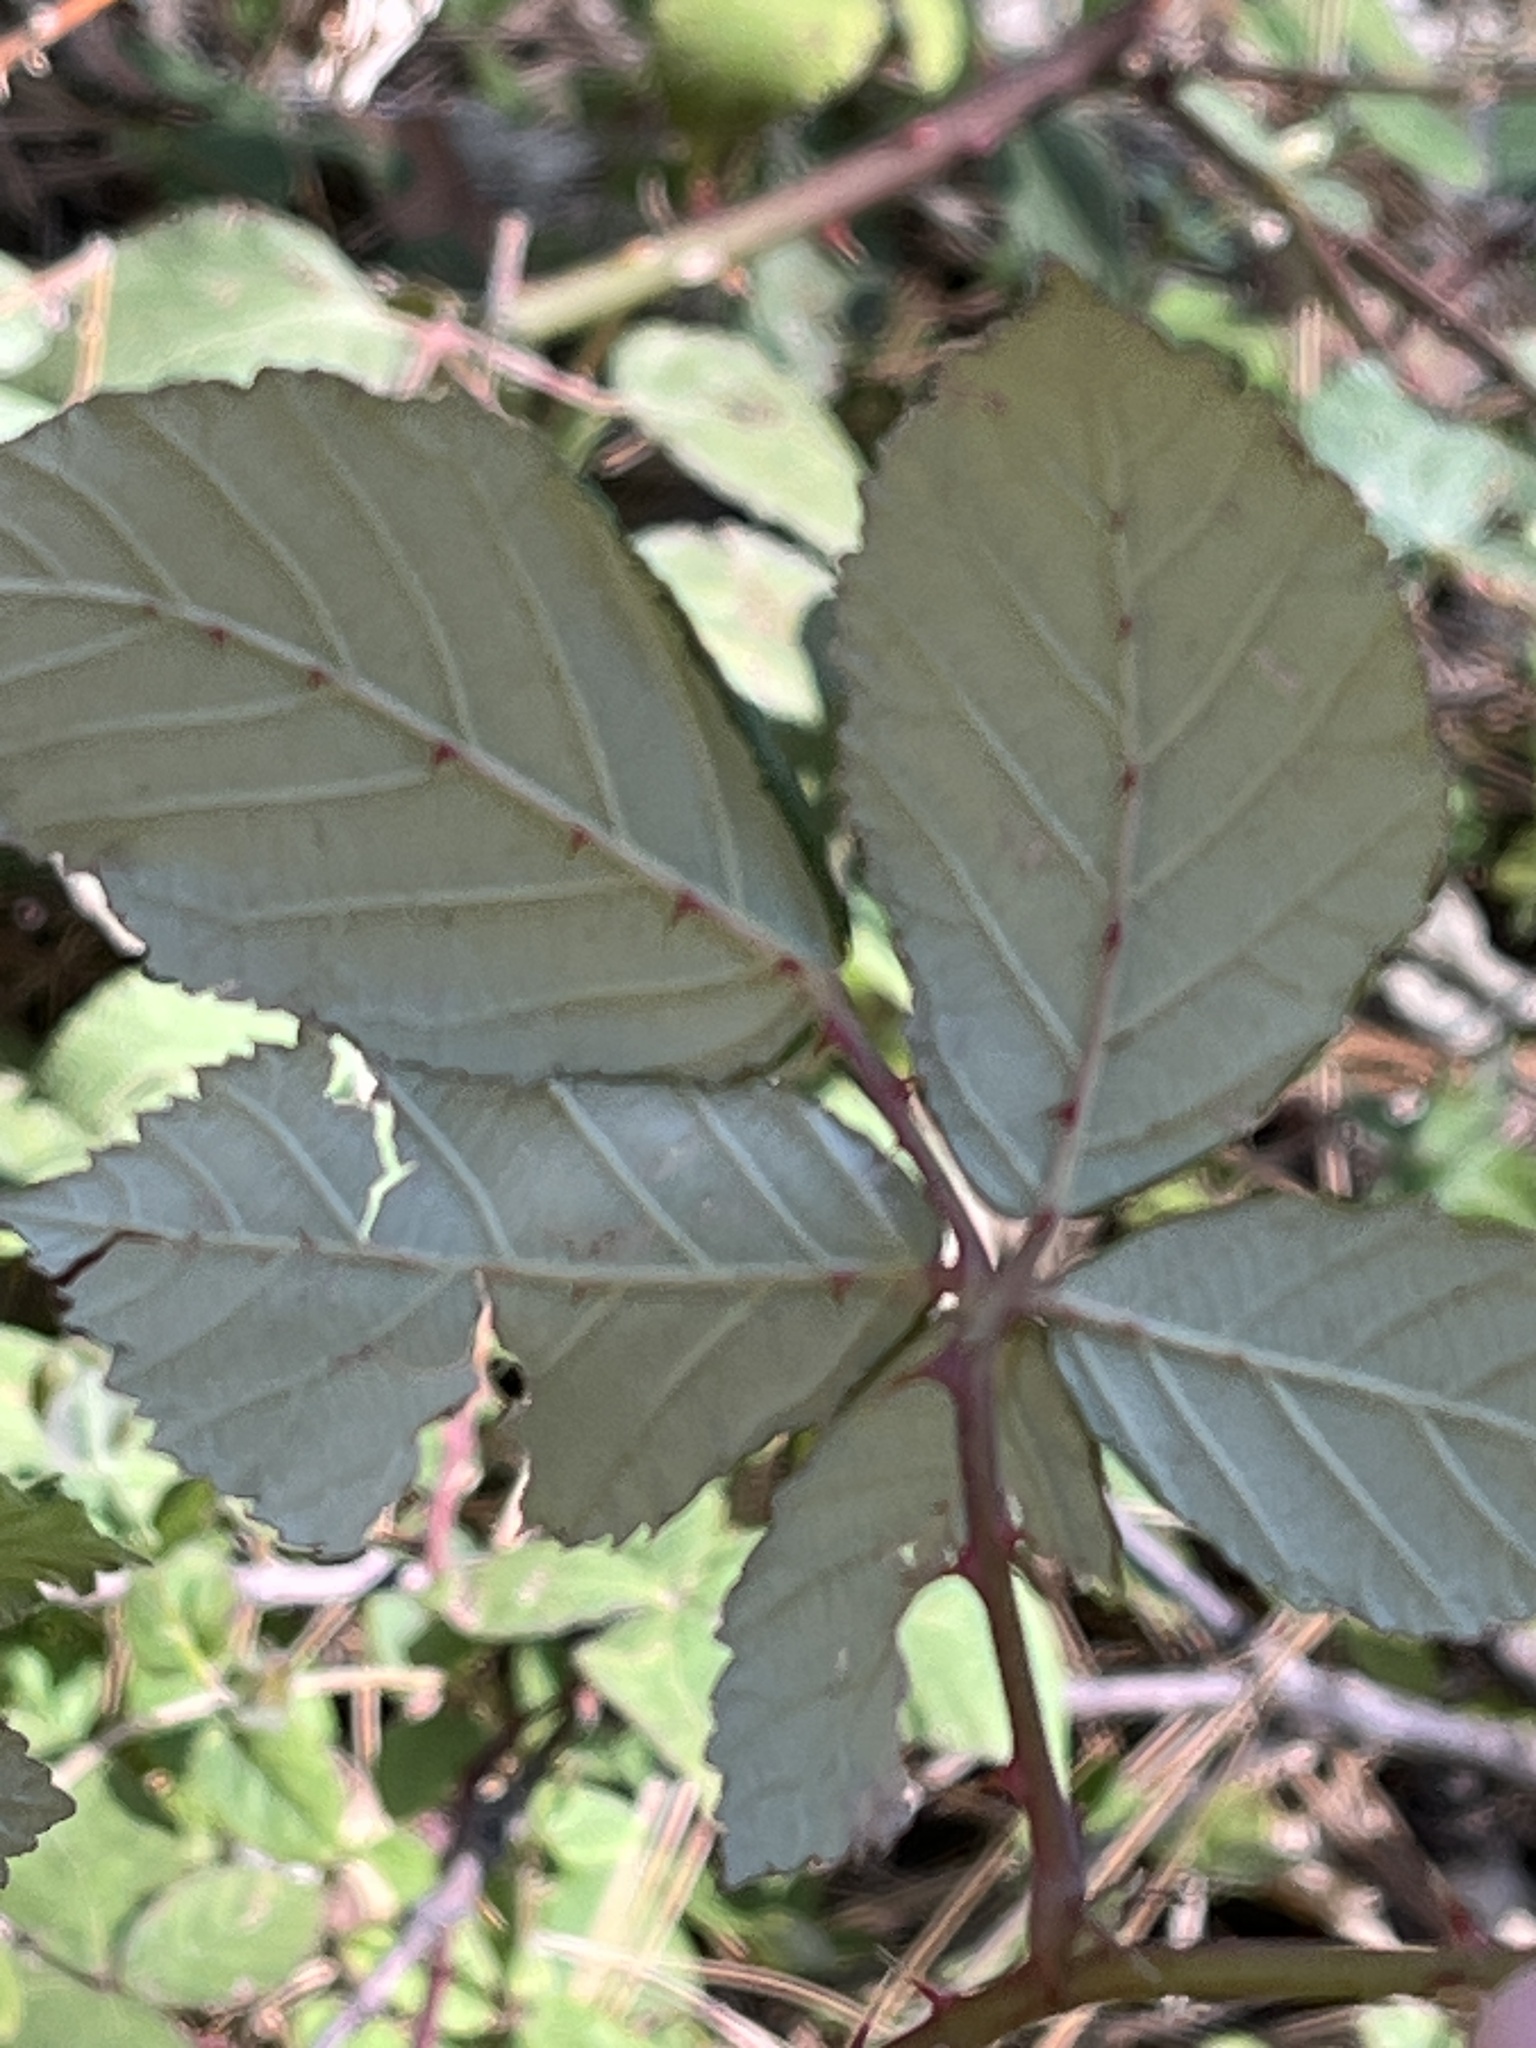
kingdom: Plantae
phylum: Tracheophyta
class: Magnoliopsida
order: Rosales
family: Rosaceae
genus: Rubus
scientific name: Rubus armeniacus
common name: Himalayan blackberry
